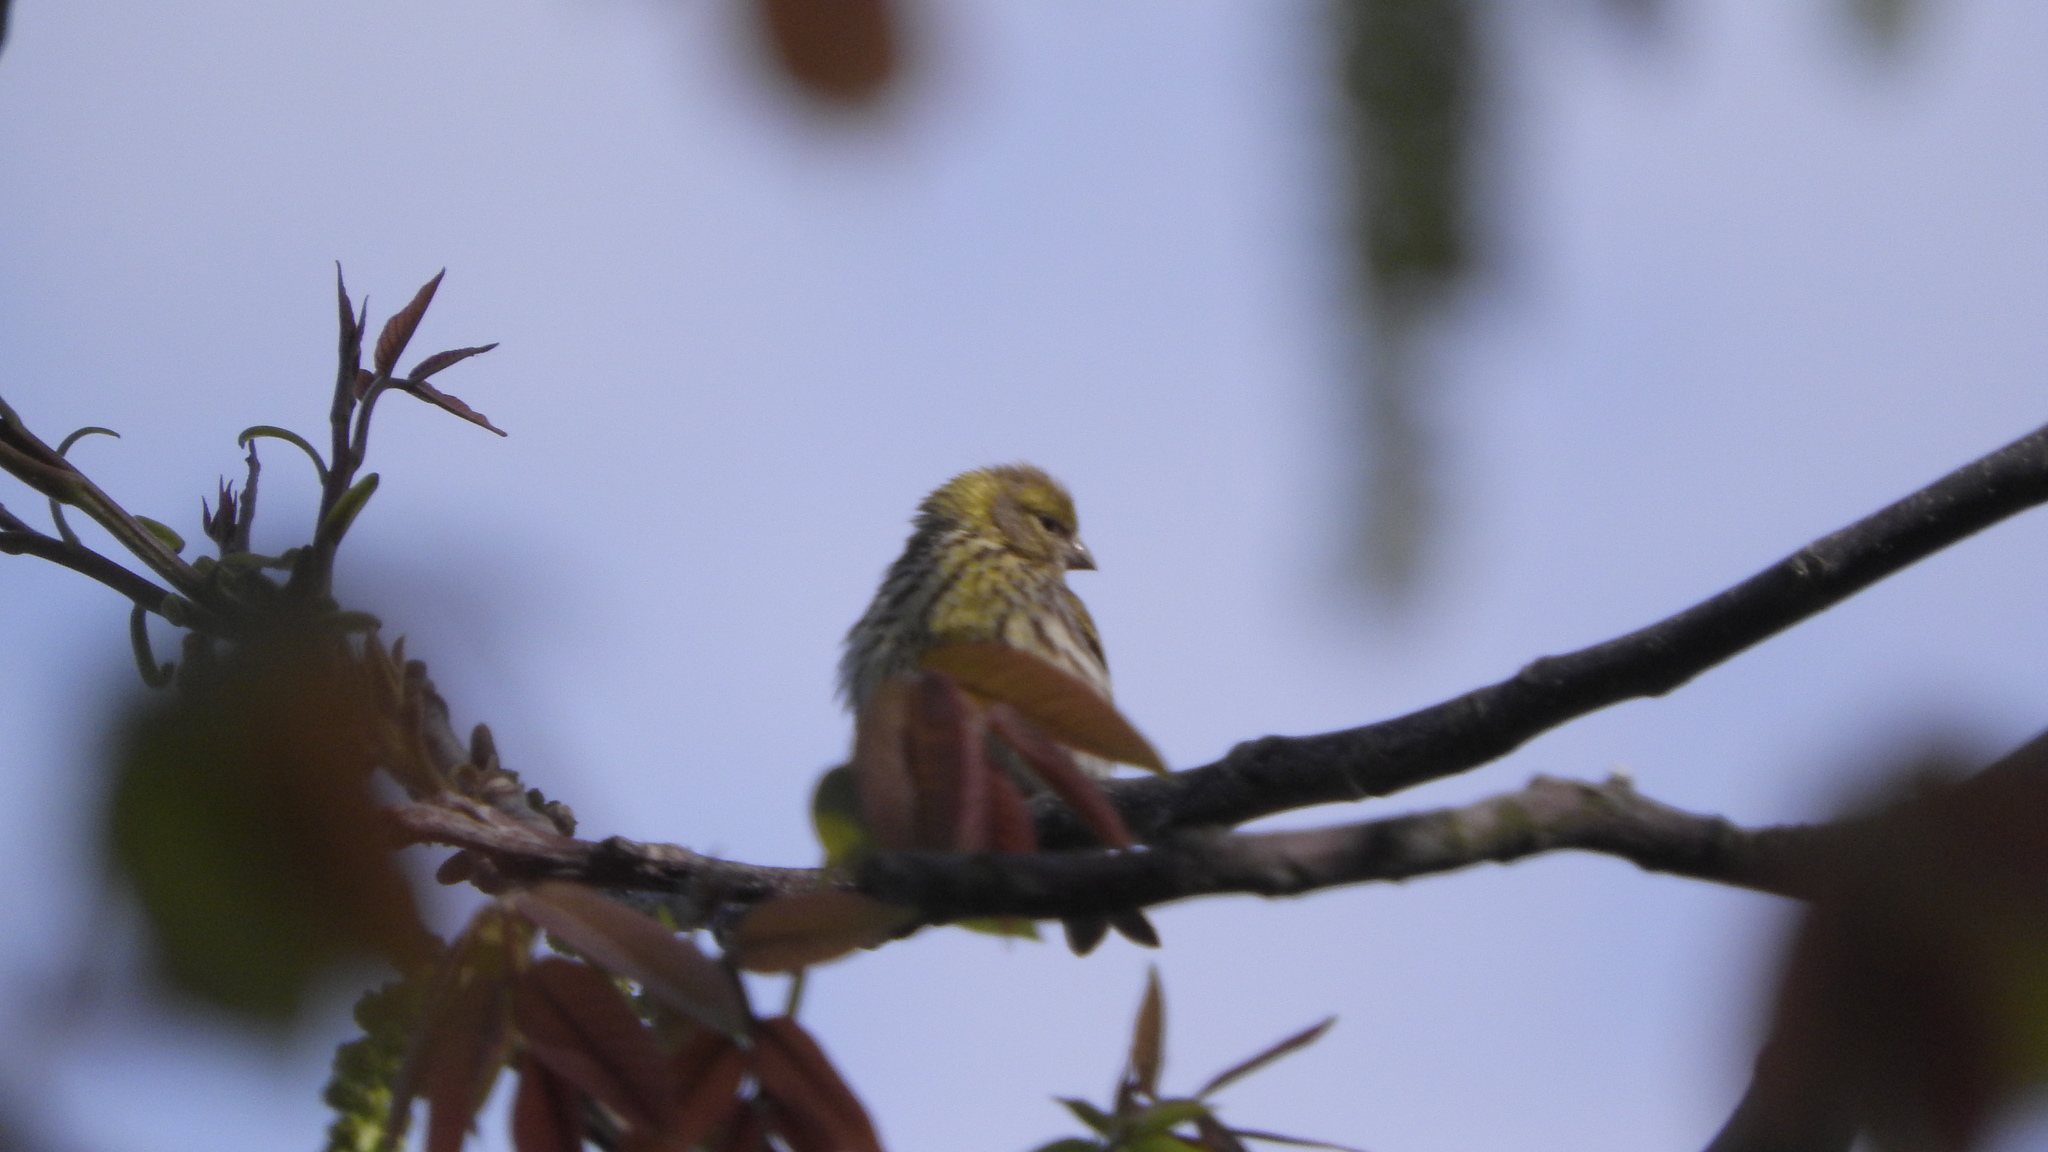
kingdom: Animalia
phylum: Chordata
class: Aves
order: Passeriformes
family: Fringillidae
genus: Serinus
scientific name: Serinus serinus
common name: European serin
